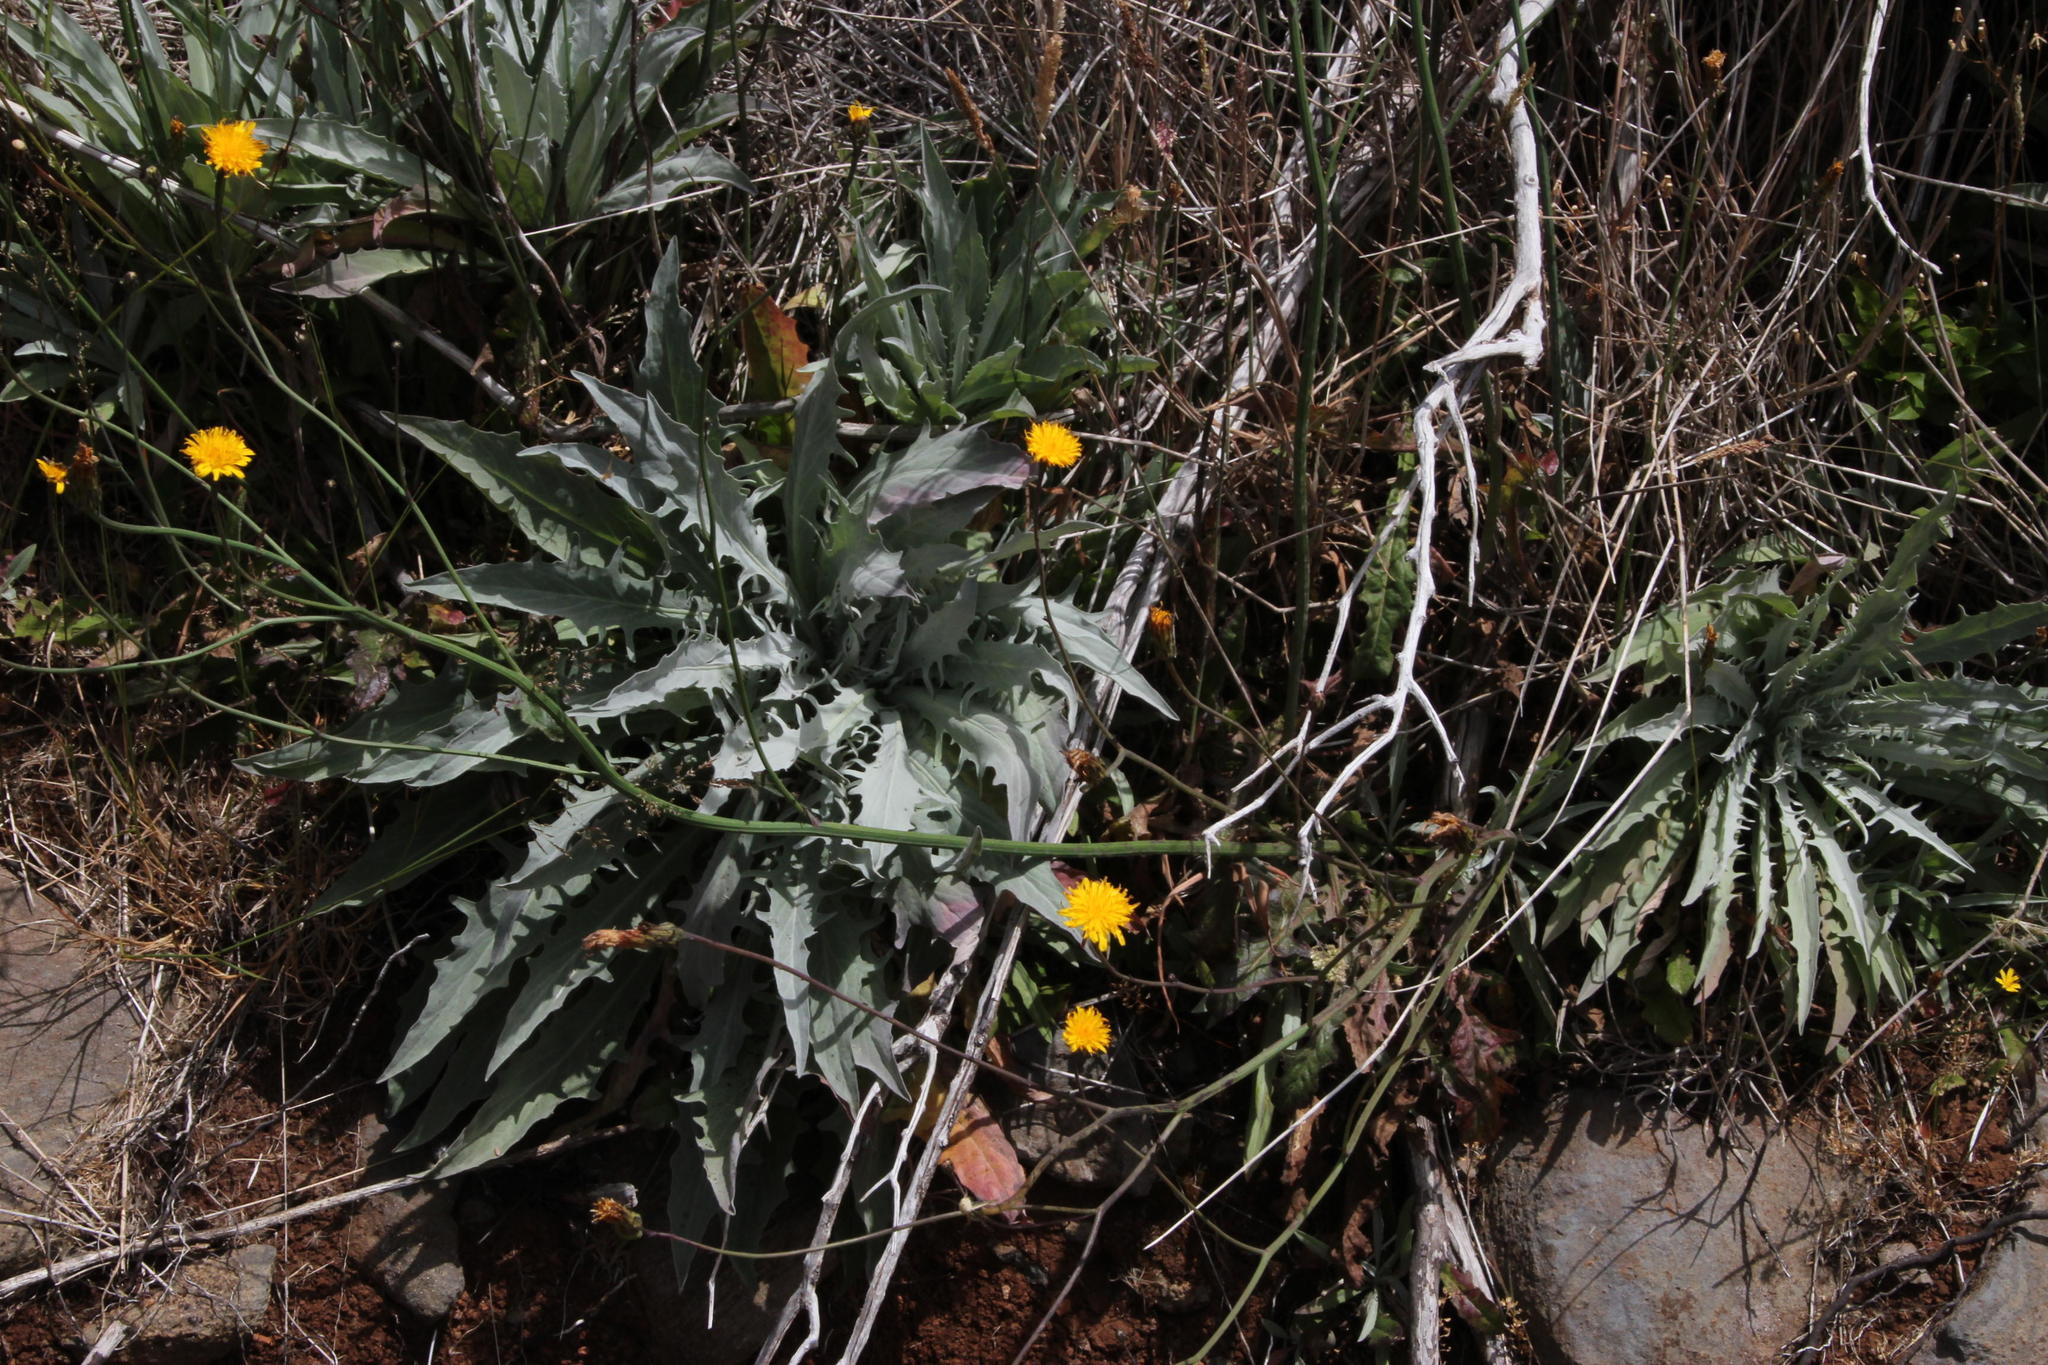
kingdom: Plantae
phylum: Tracheophyta
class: Magnoliopsida
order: Asterales
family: Asteraceae
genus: Andryala
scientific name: Andryala glandulosa
